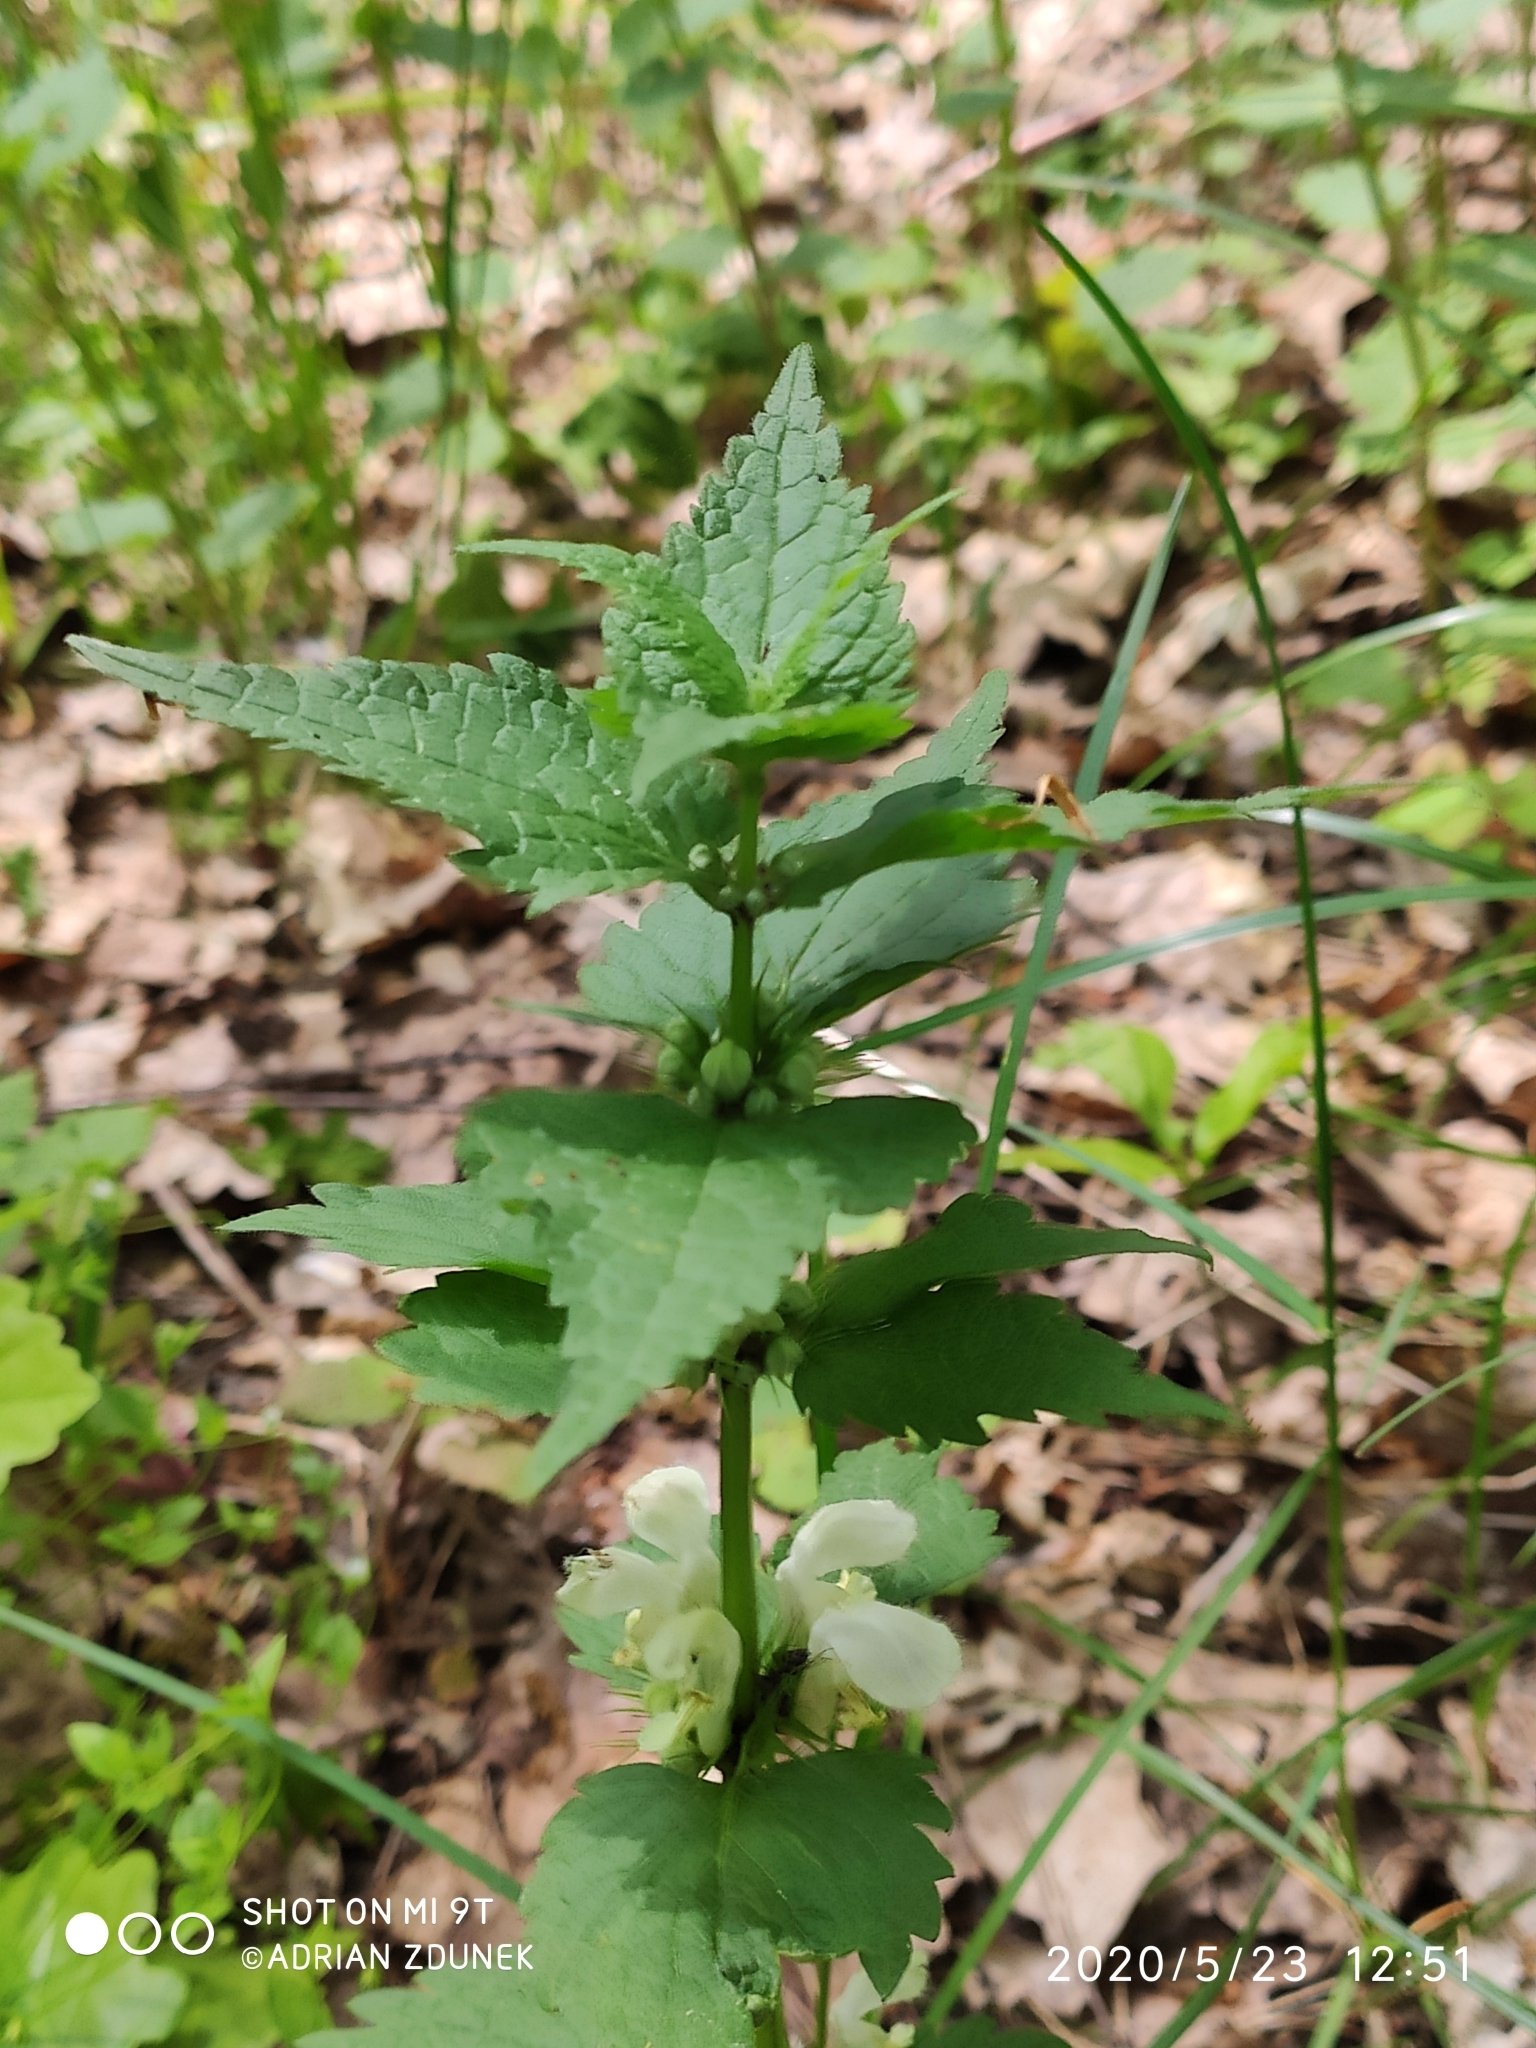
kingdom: Plantae
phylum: Tracheophyta
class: Magnoliopsida
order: Lamiales
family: Lamiaceae
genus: Lamium
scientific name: Lamium album
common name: White dead-nettle
